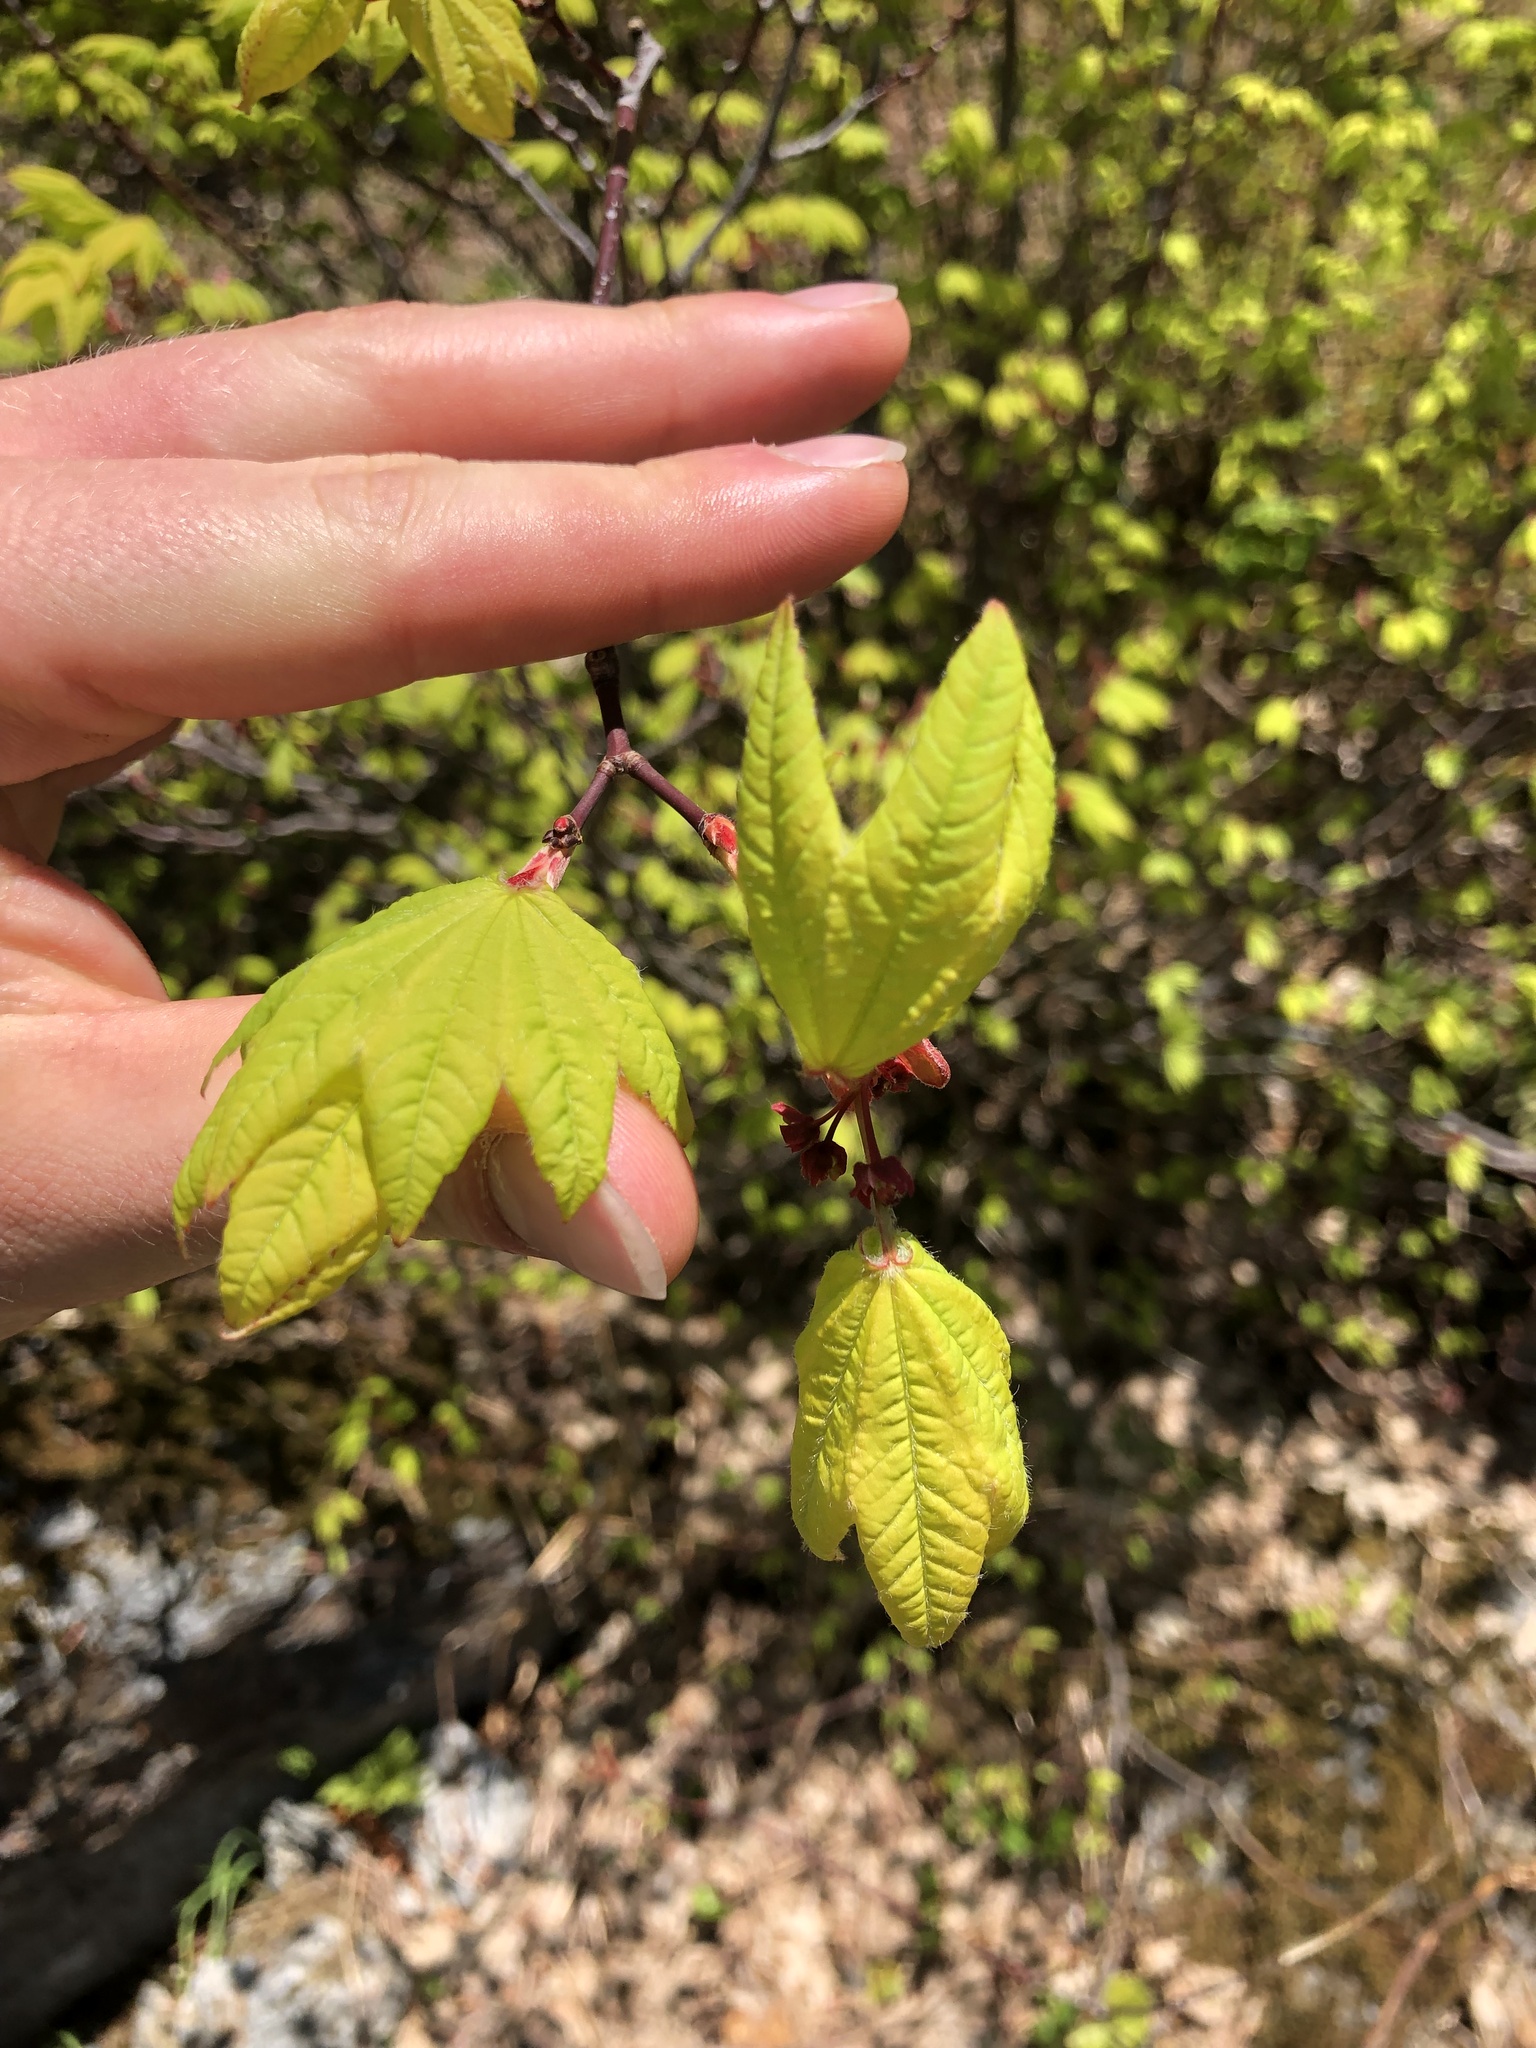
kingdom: Plantae
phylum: Tracheophyta
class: Magnoliopsida
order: Sapindales
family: Sapindaceae
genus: Acer
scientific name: Acer circinatum
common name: Vine maple
